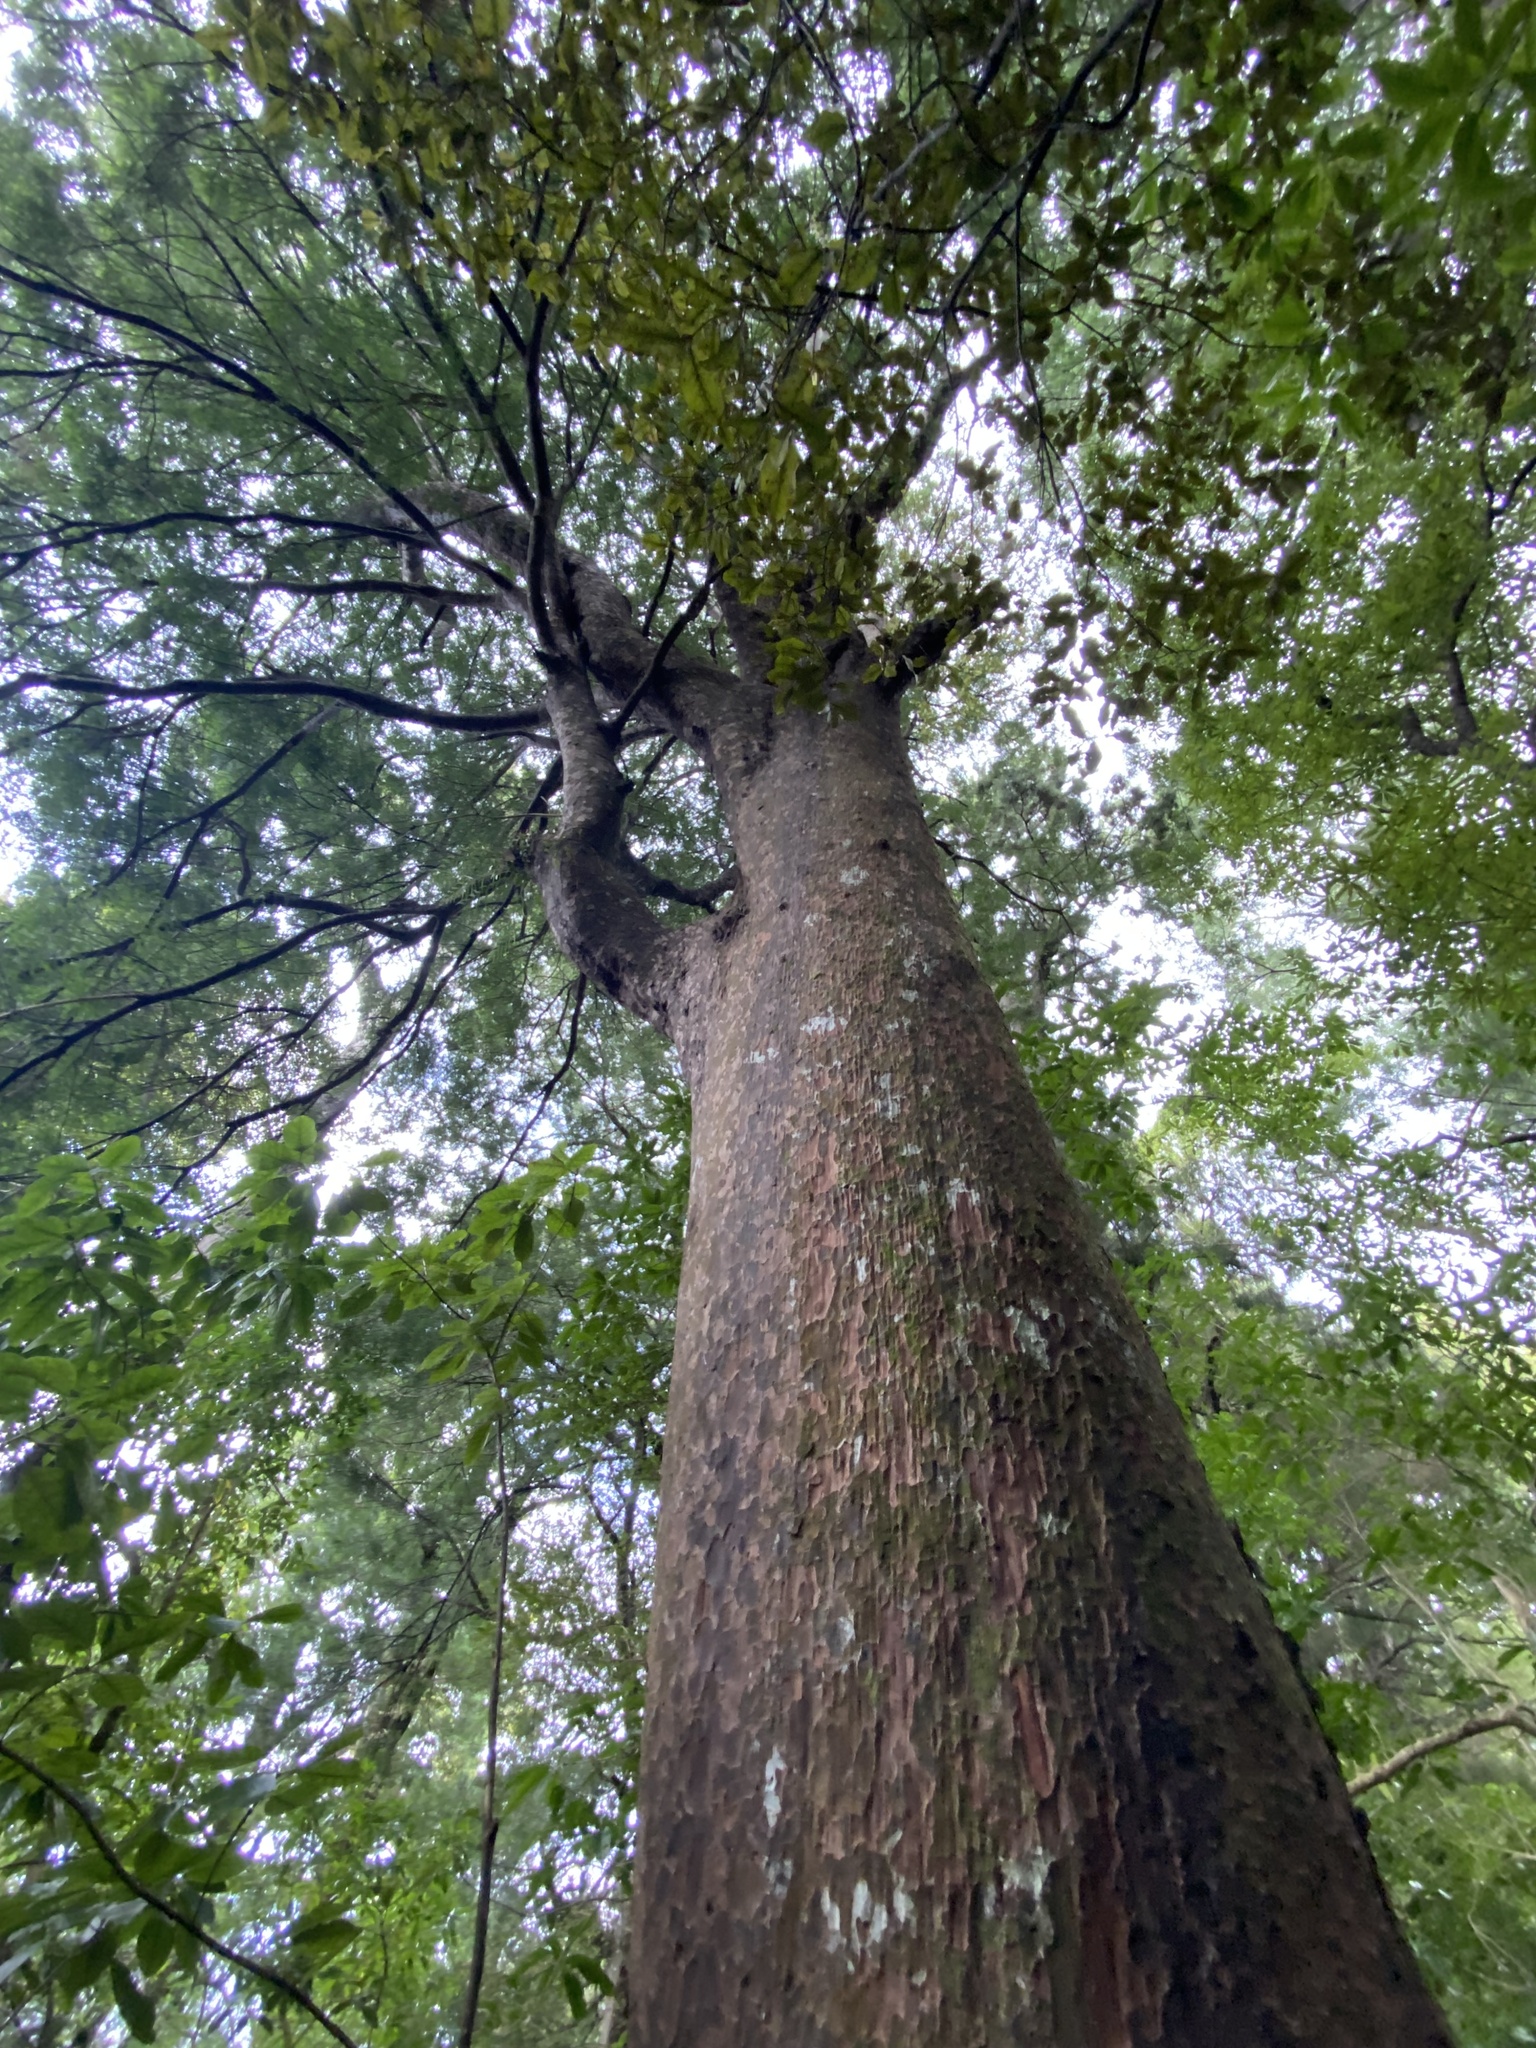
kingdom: Plantae
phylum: Tracheophyta
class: Pinopsida
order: Pinales
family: Podocarpaceae
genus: Prumnopitys
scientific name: Prumnopitys taxifolia
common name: Matai
